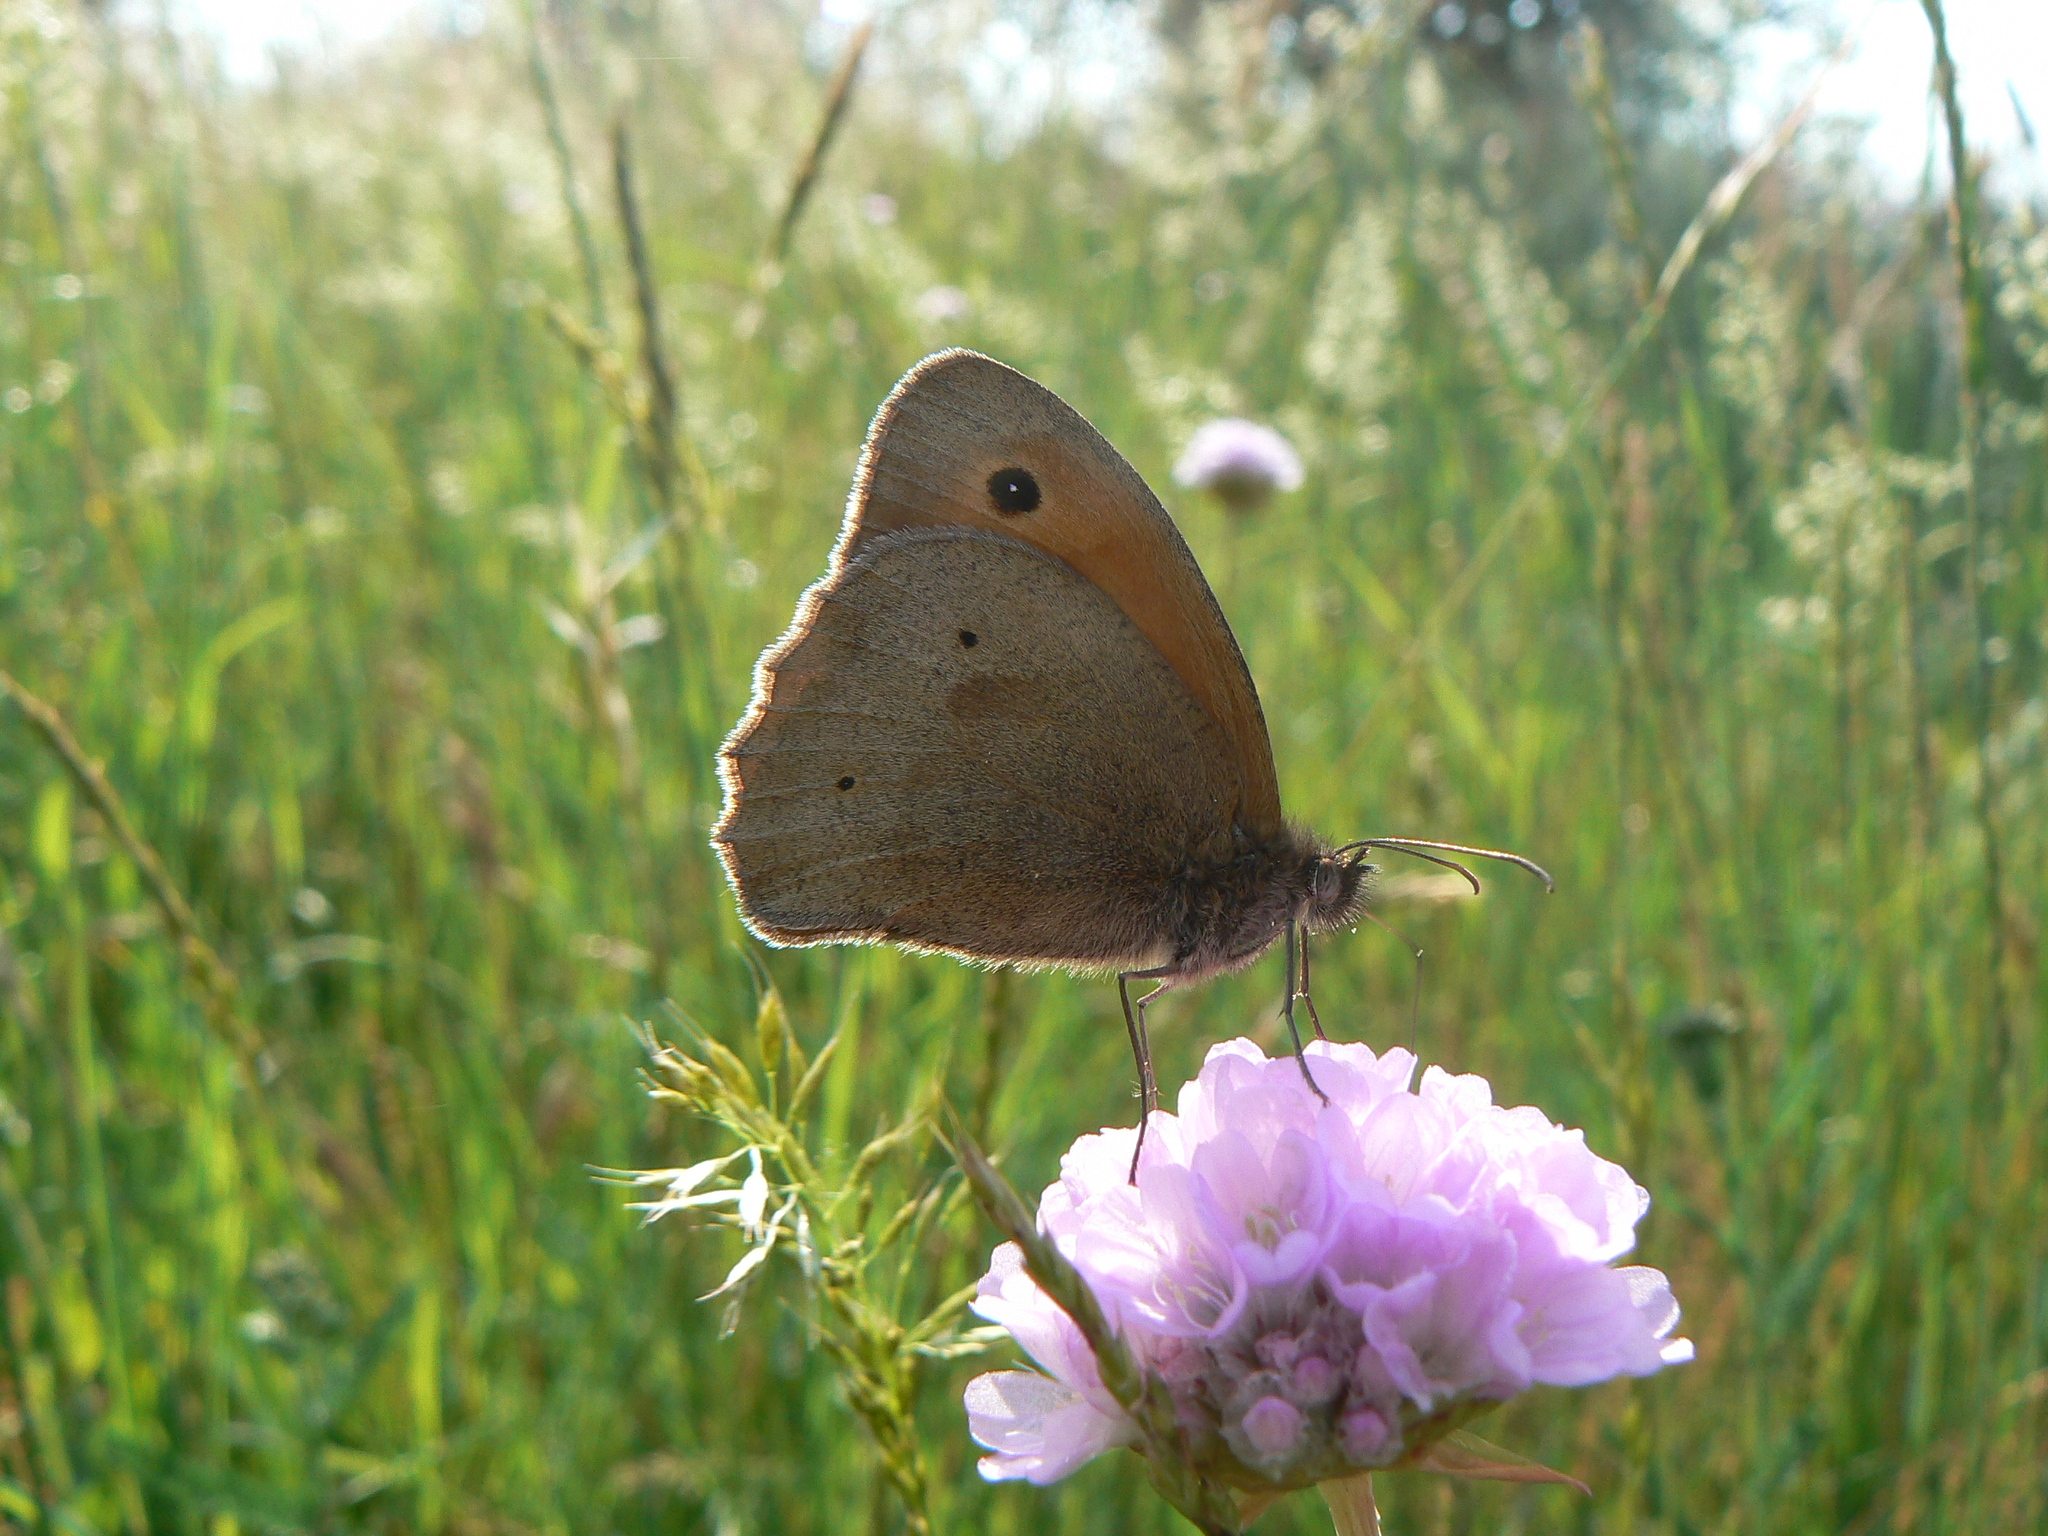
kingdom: Animalia
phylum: Arthropoda
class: Insecta
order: Lepidoptera
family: Nymphalidae
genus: Maniola
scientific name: Maniola jurtina
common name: Meadow brown
